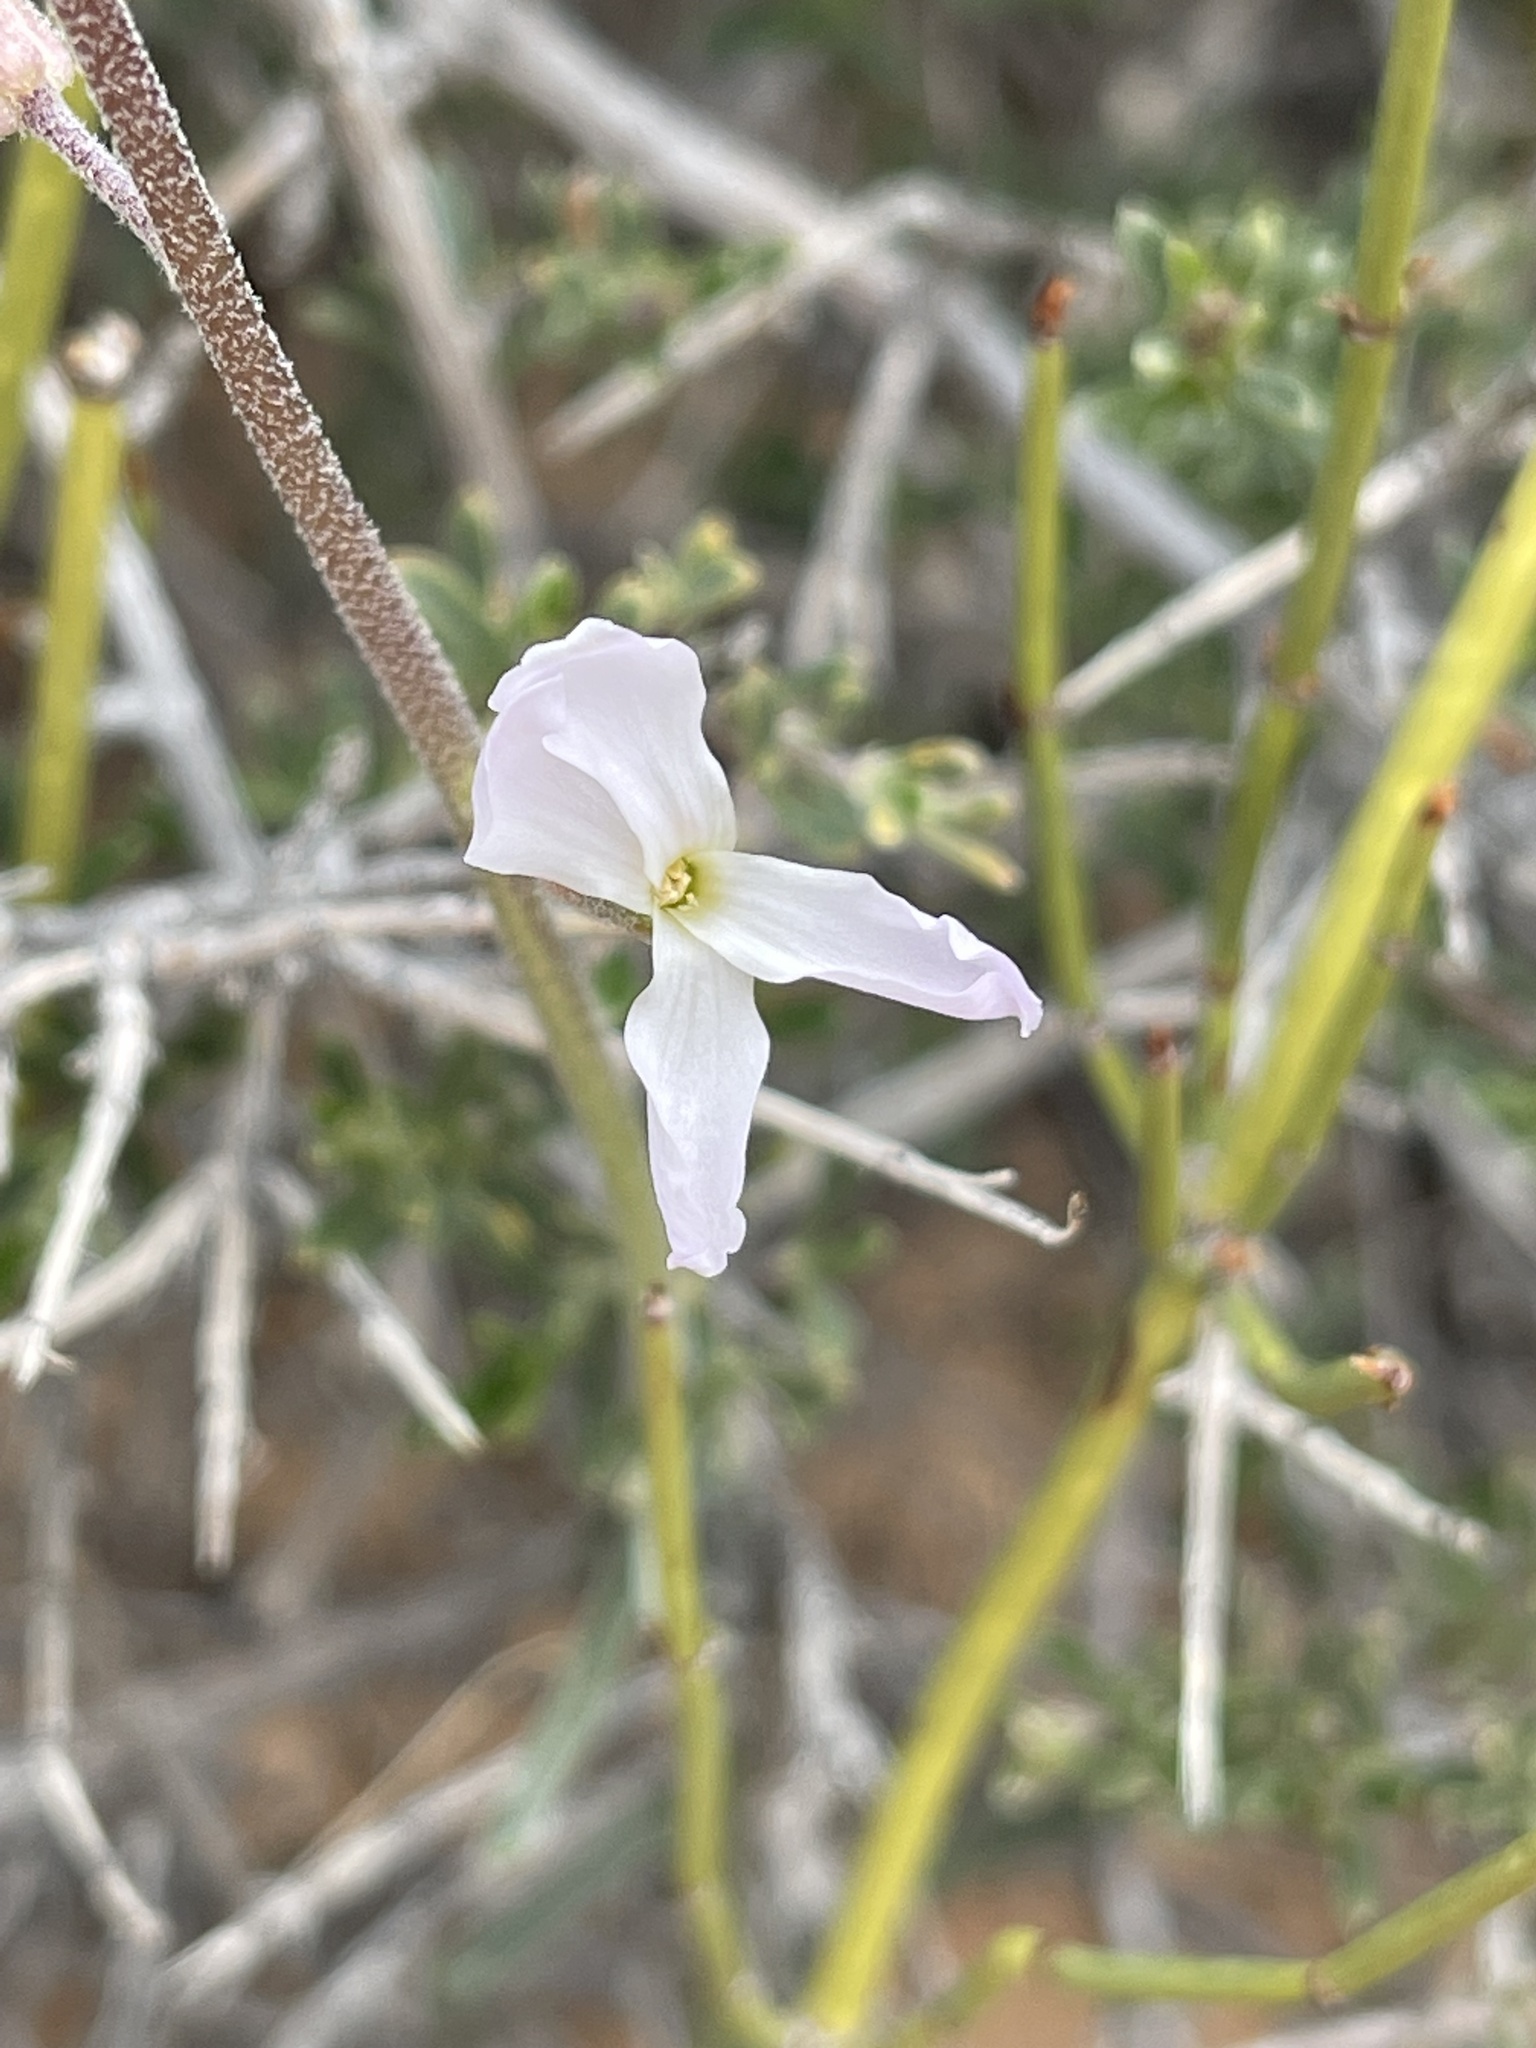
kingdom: Plantae
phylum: Tracheophyta
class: Magnoliopsida
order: Brassicales
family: Brassicaceae
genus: Boechera
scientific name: Boechera formosa
